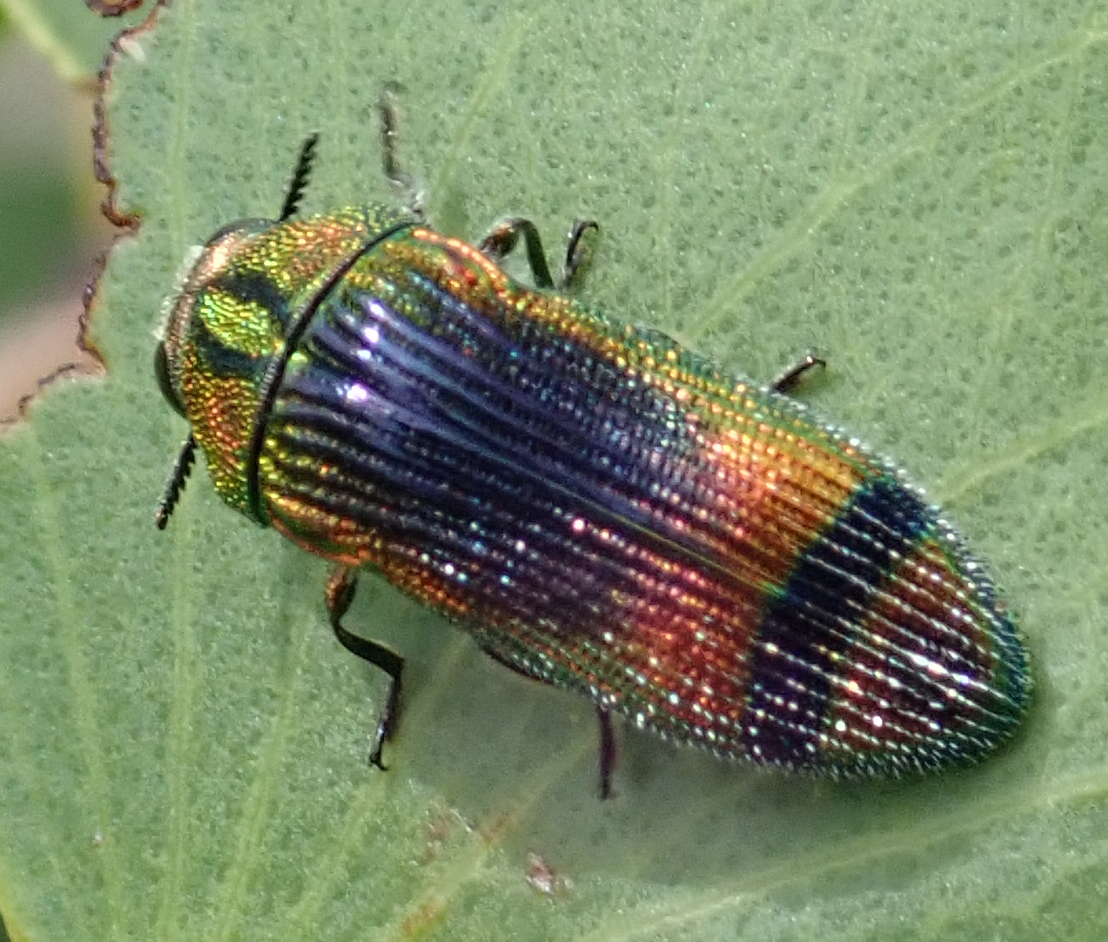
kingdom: Animalia
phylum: Arthropoda
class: Insecta
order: Coleoptera
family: Buprestidae
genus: Acmaeodera
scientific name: Acmaeodera fascigera
